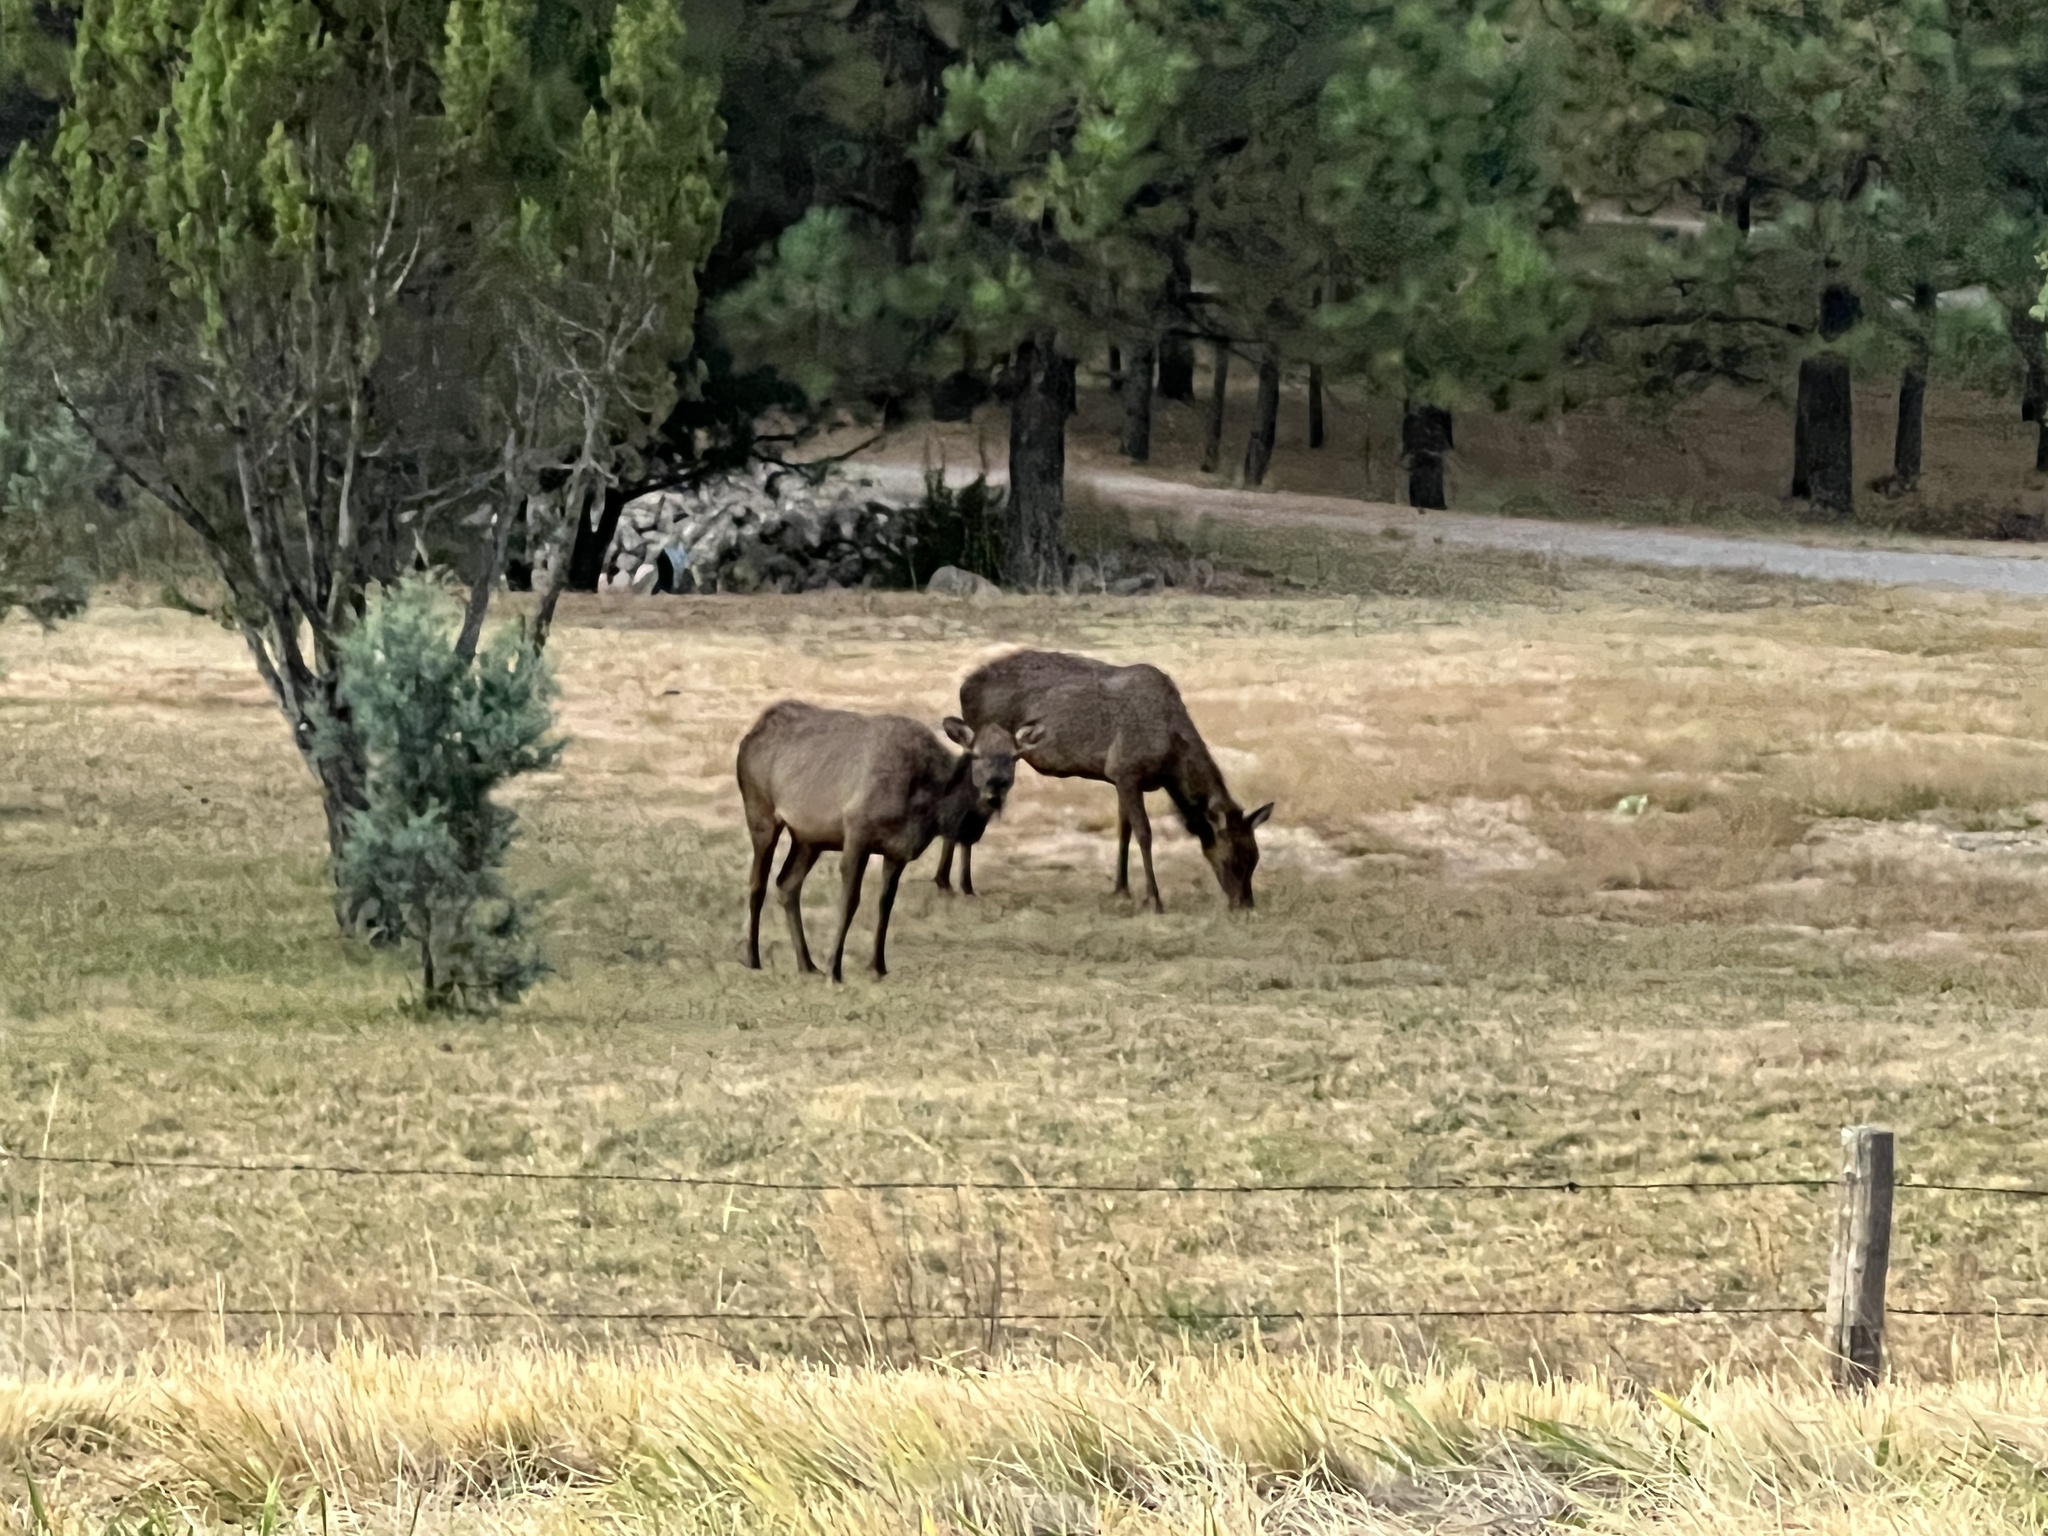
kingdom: Animalia
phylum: Chordata
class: Mammalia
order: Artiodactyla
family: Cervidae
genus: Cervus
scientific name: Cervus elaphus
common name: Red deer
